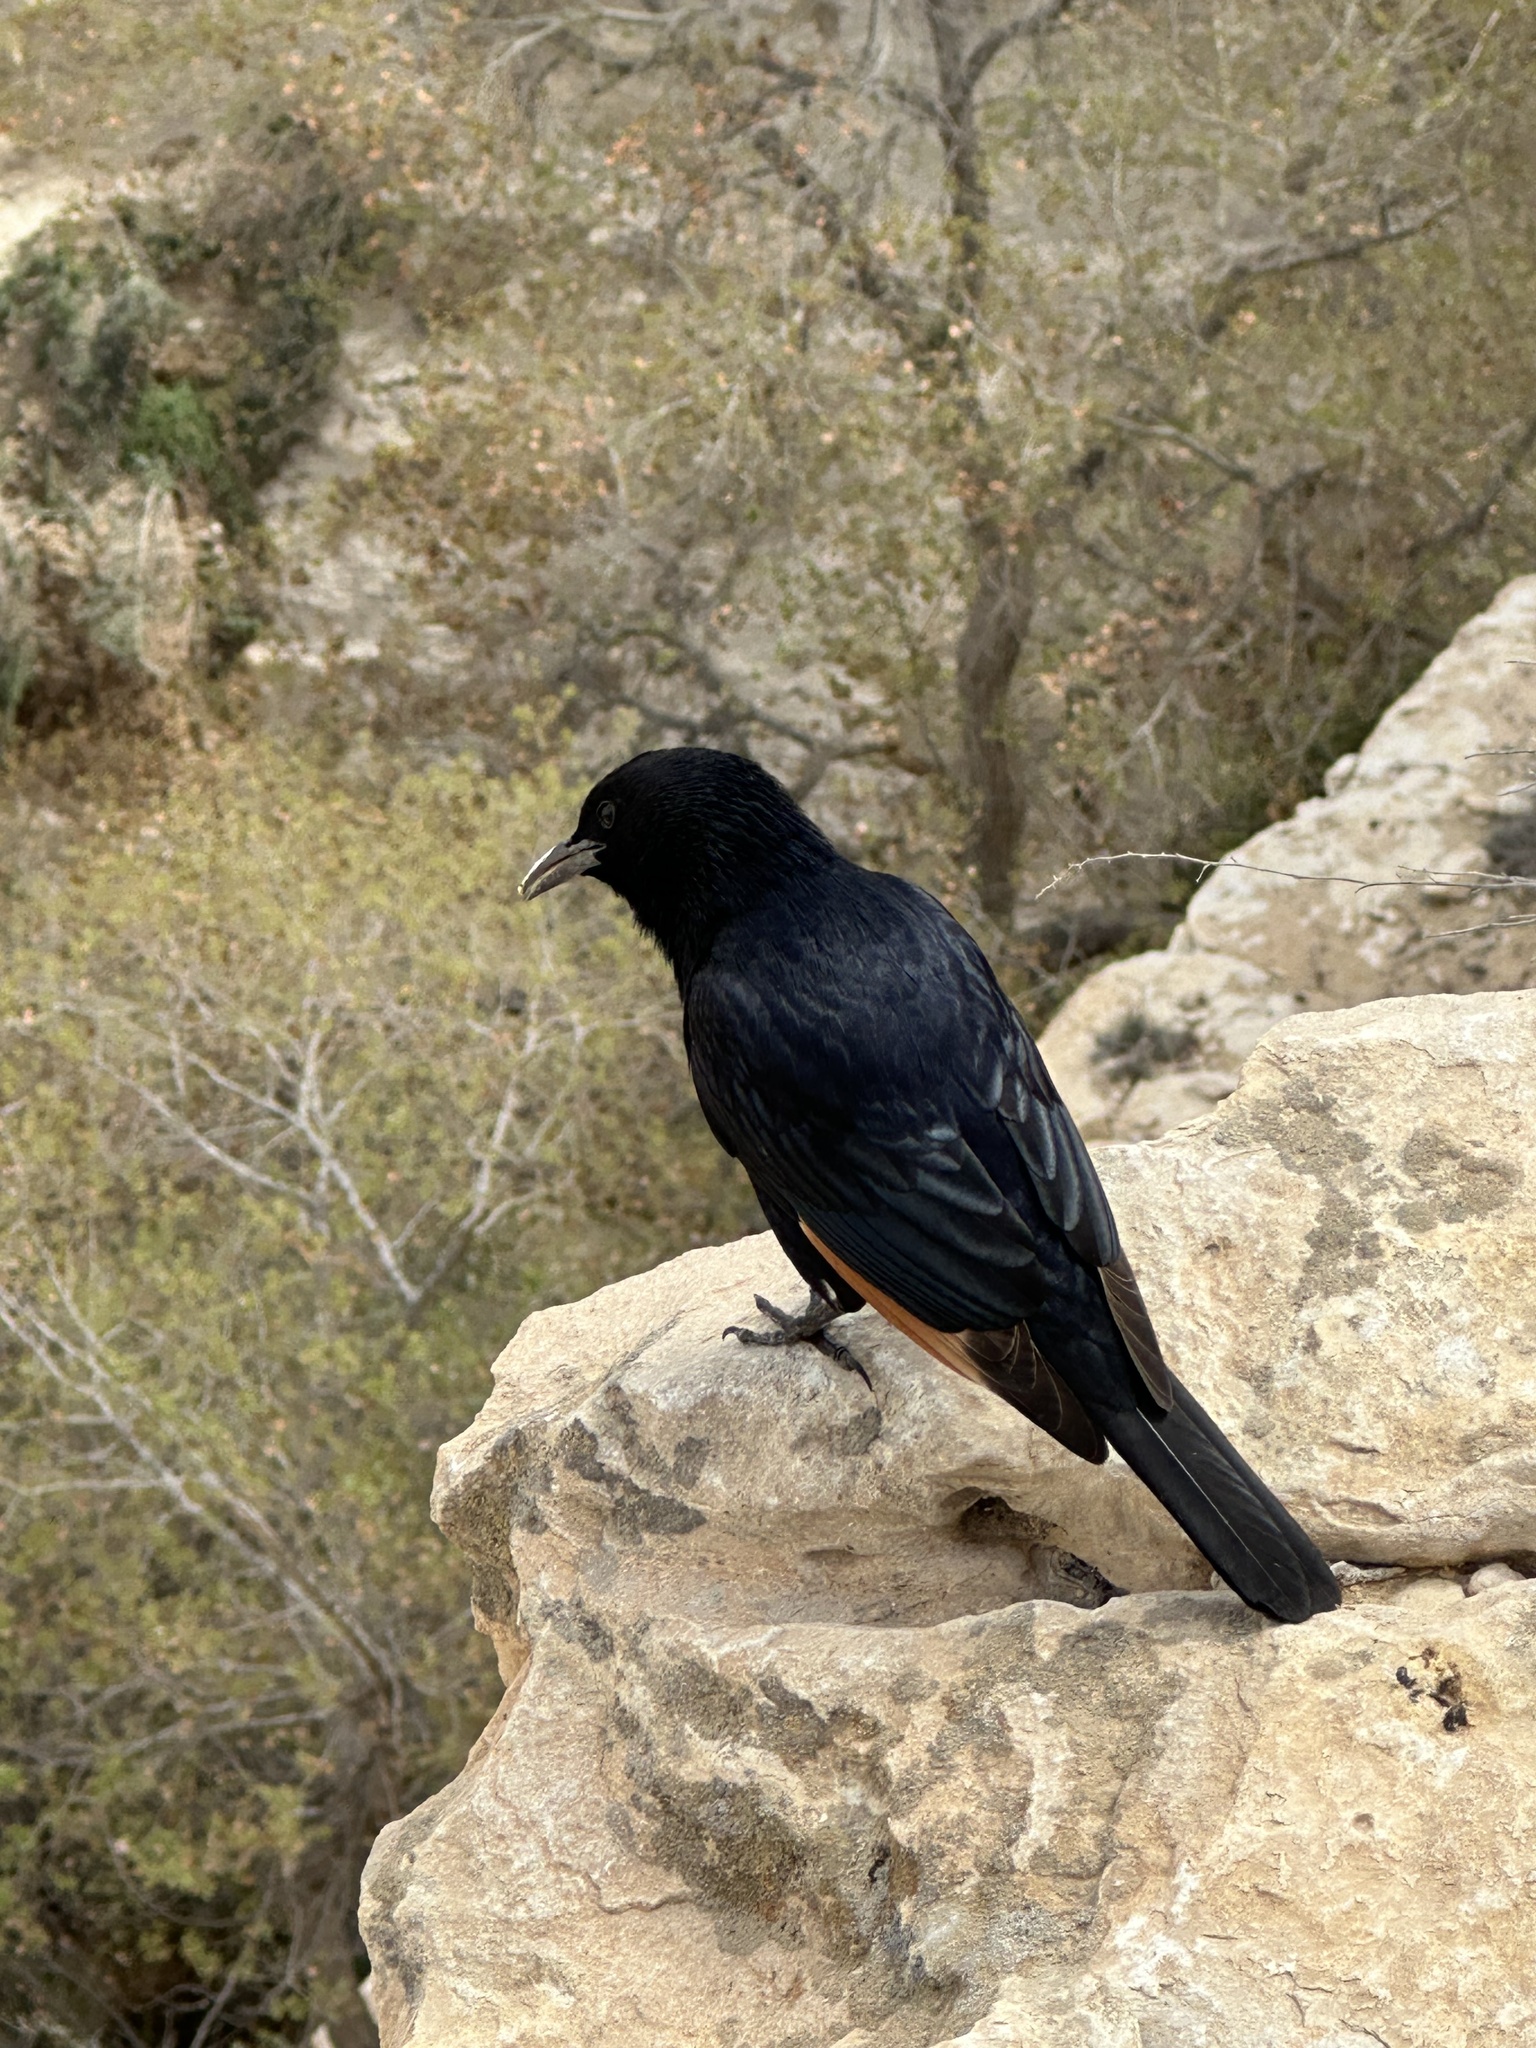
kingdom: Animalia
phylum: Chordata
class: Aves
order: Passeriformes
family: Sturnidae
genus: Onychognathus
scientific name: Onychognathus tristramii
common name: Tristram's starling
